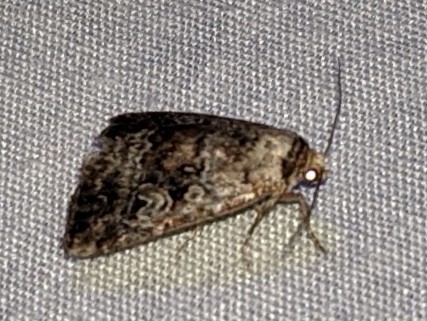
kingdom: Animalia
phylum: Arthropoda
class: Insecta
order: Lepidoptera
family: Noctuidae
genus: Elaphria
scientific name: Elaphria alapallida
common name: Pale-winged midget
